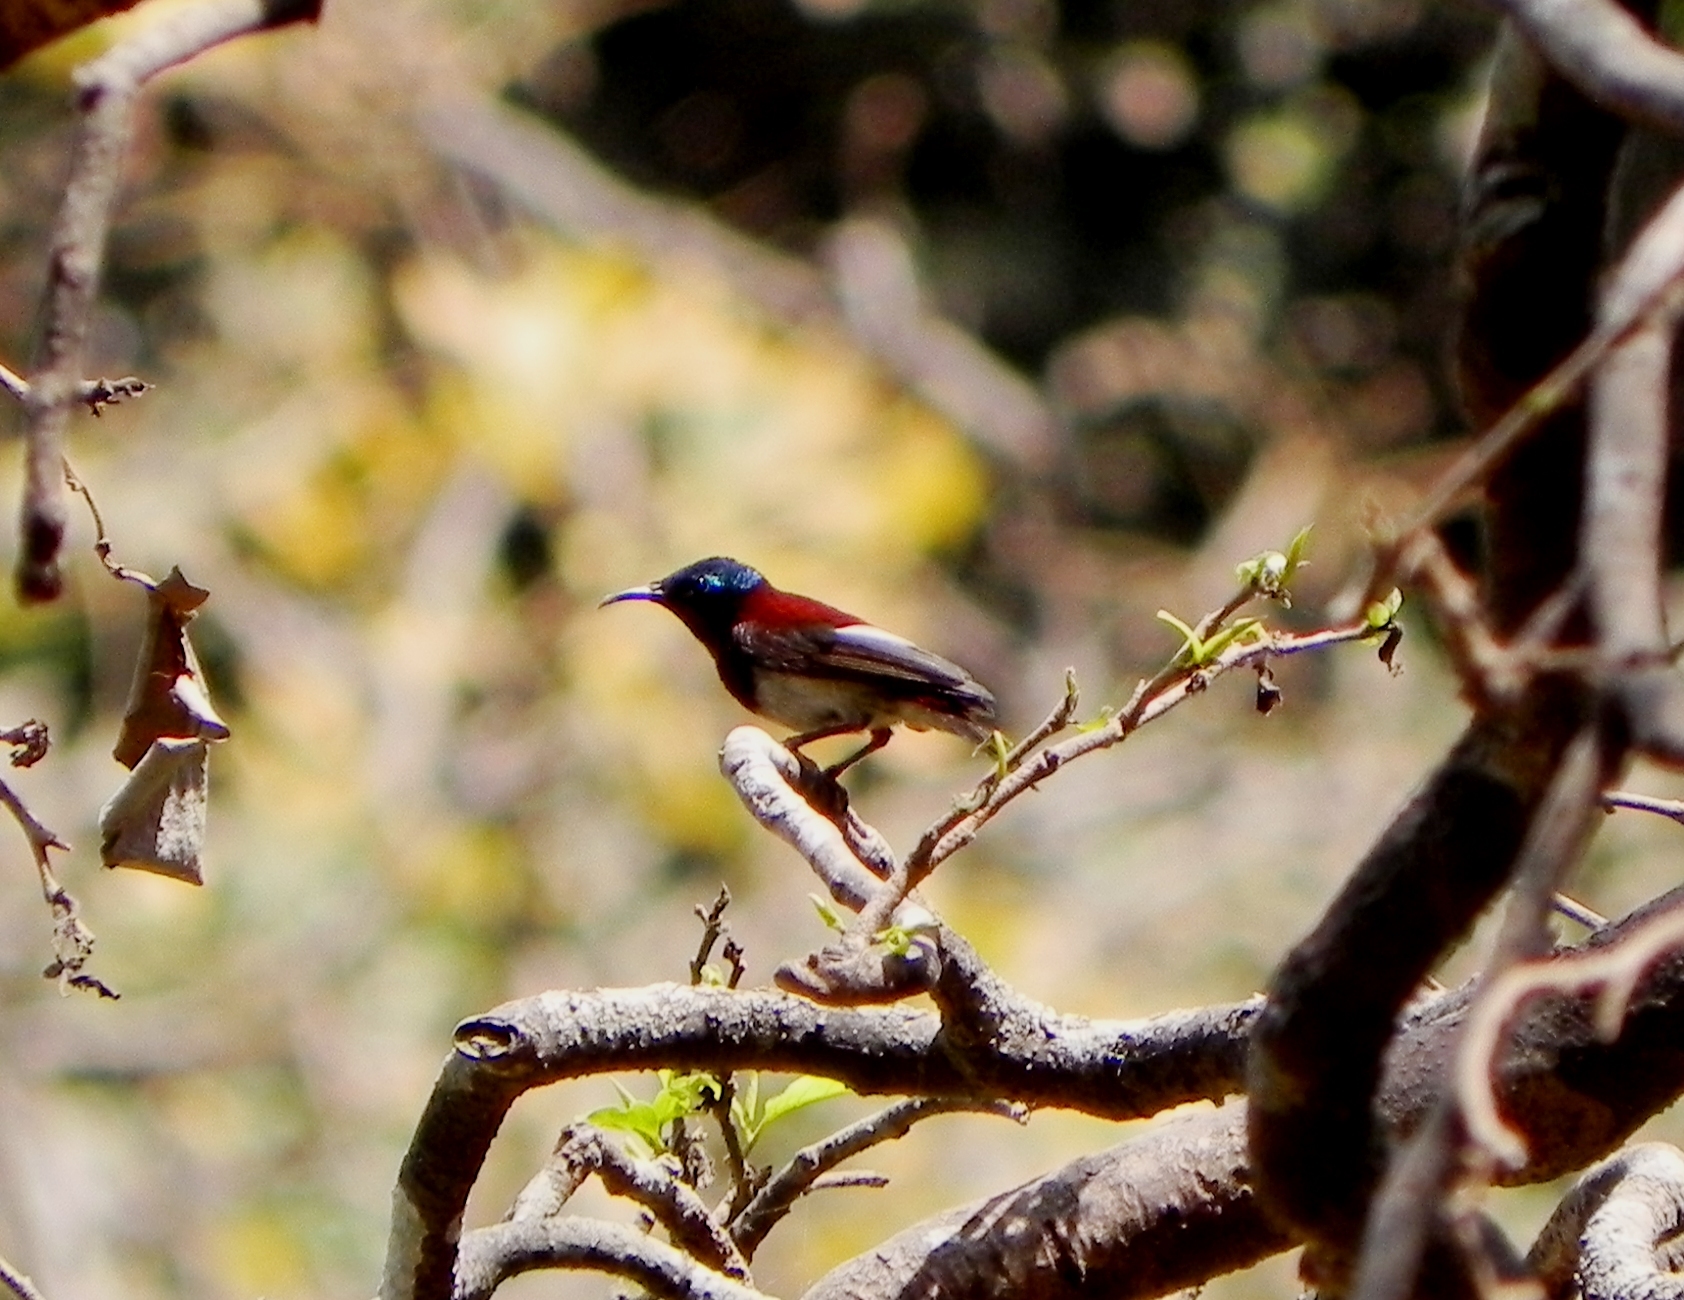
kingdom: Animalia
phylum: Chordata
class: Aves
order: Passeriformes
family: Nectariniidae
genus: Leptocoma
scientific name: Leptocoma minima
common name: Crimson-backed sunbird
